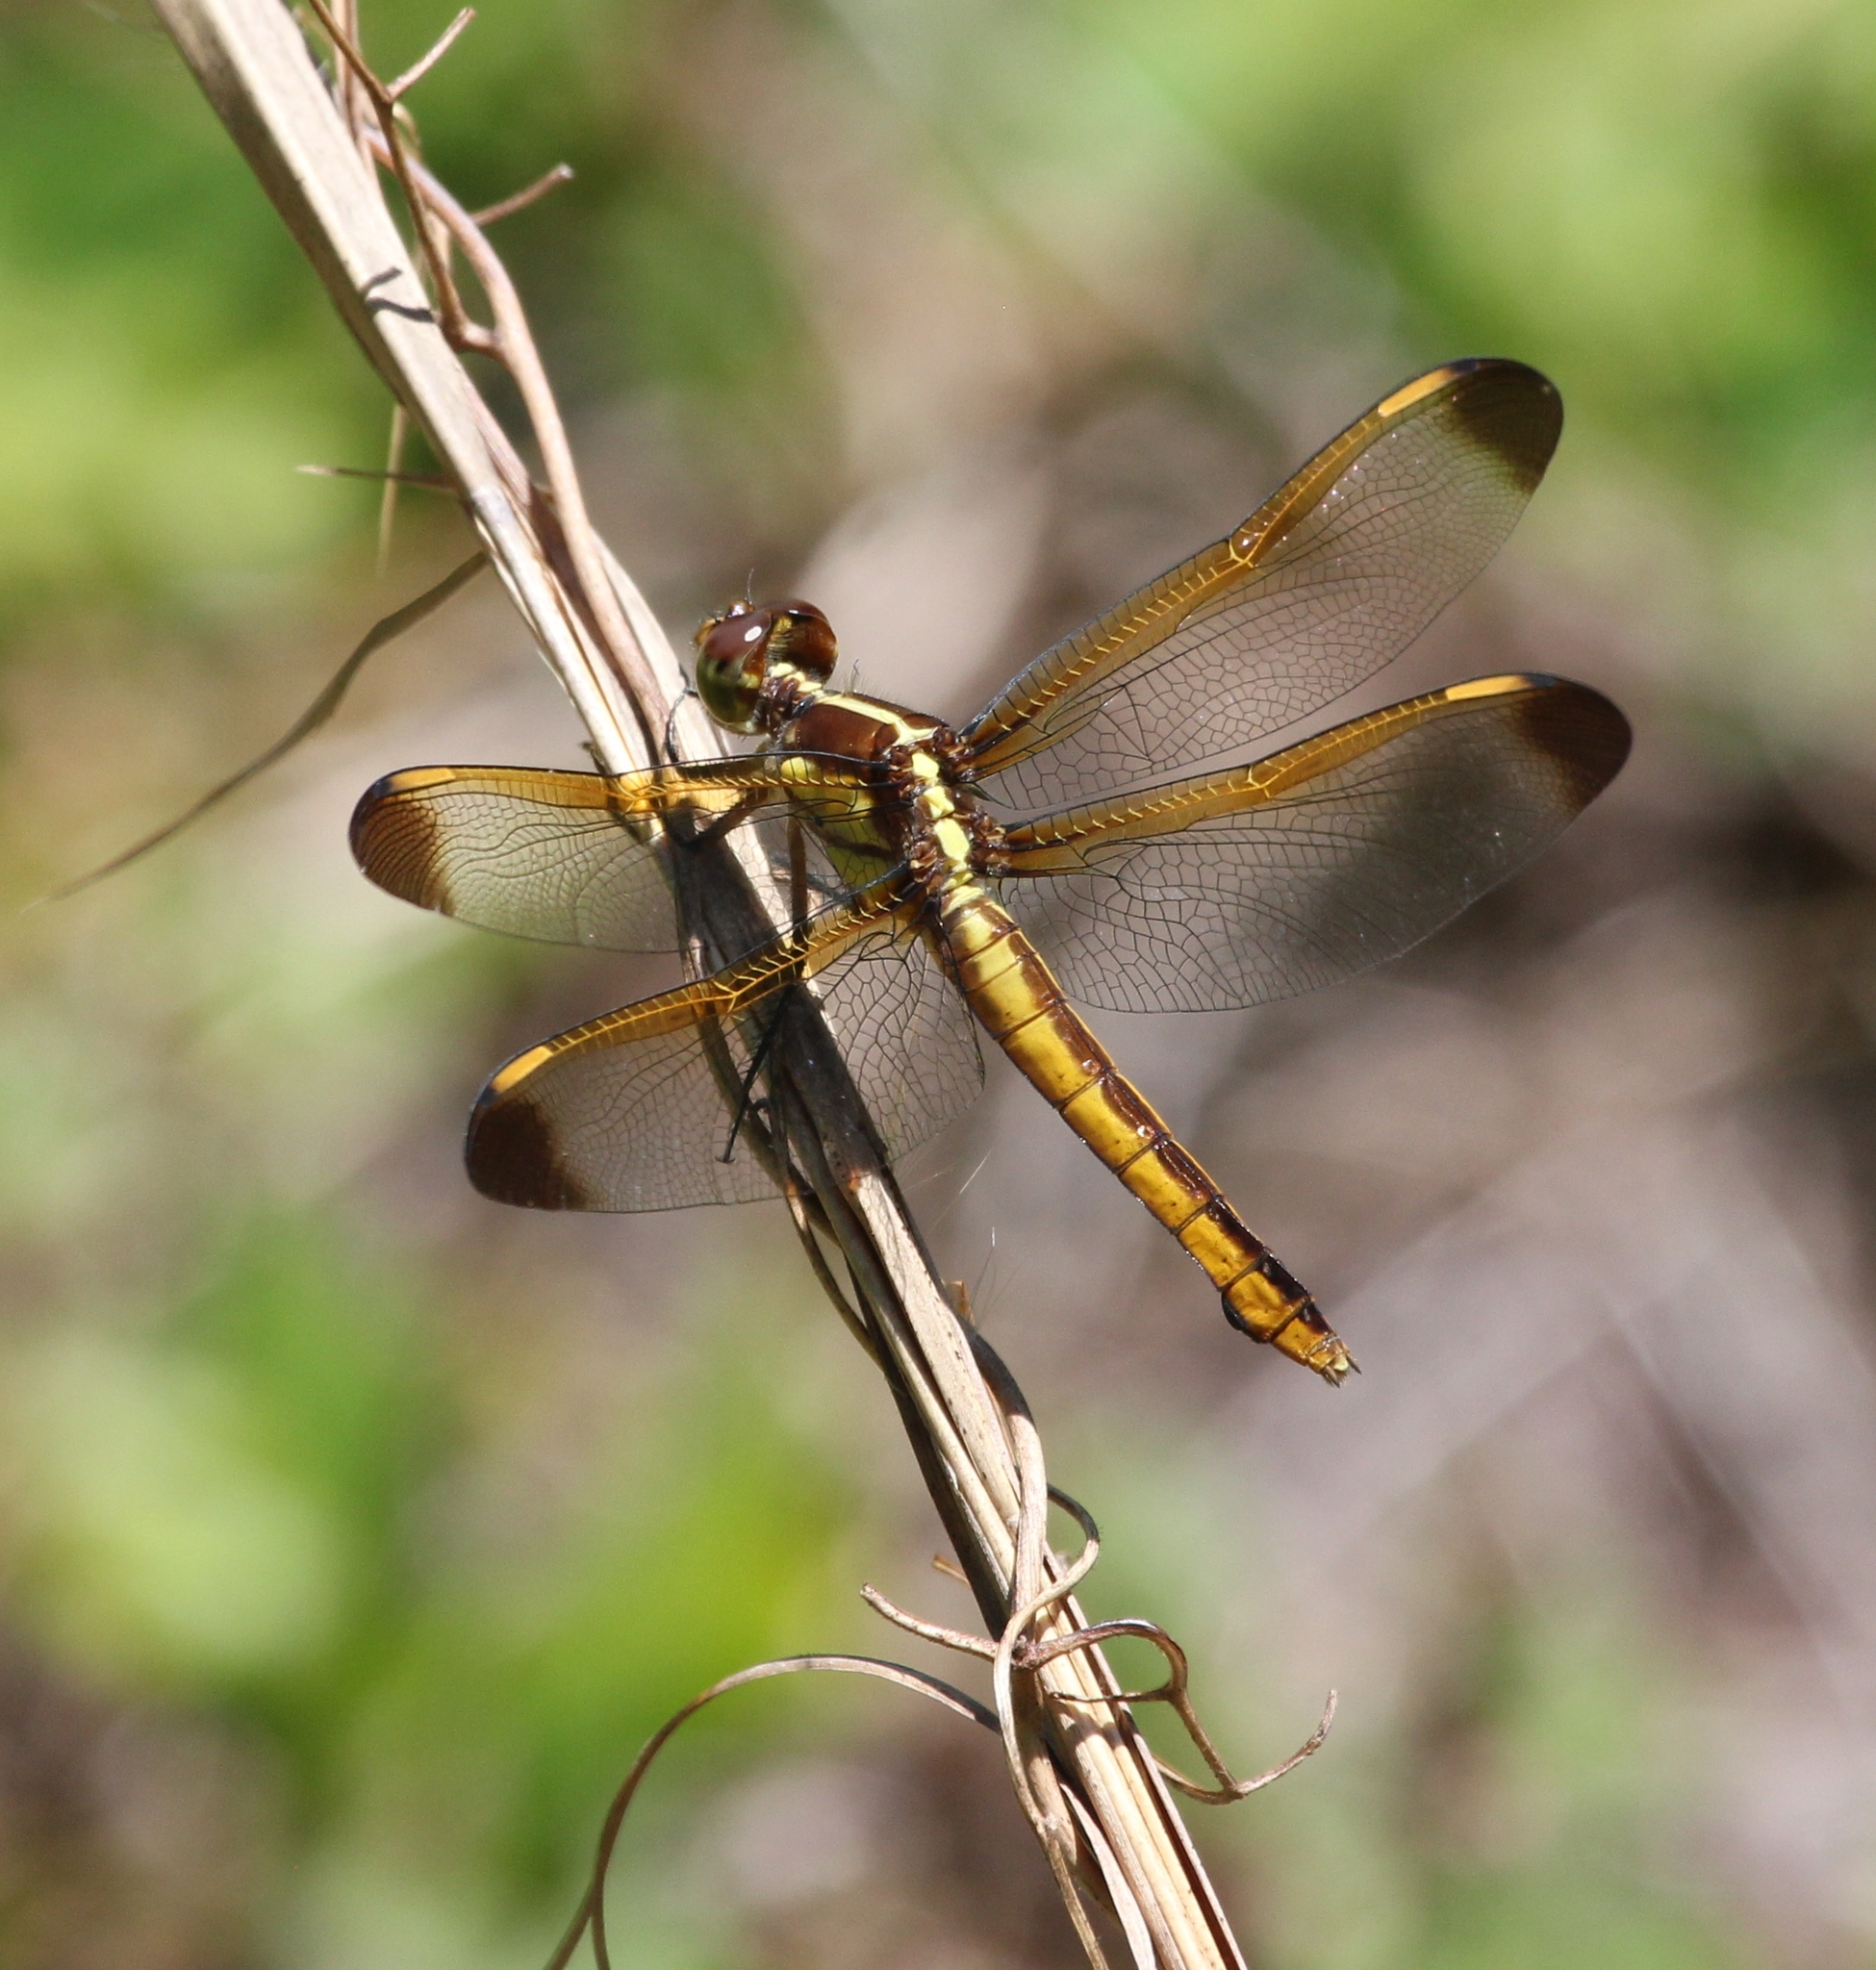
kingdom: Animalia
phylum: Arthropoda
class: Insecta
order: Odonata
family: Libellulidae
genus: Libellula
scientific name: Libellula flavida
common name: Yellow-sided skimmer
